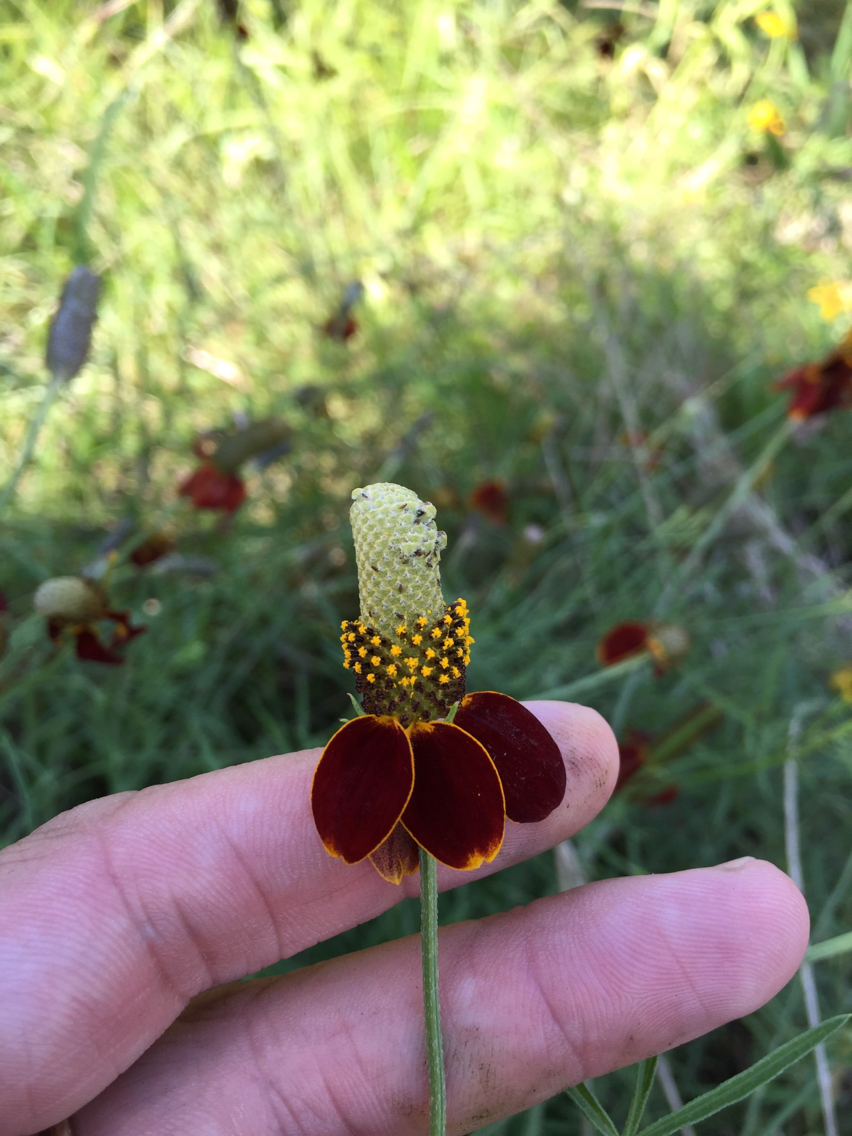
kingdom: Plantae
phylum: Tracheophyta
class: Magnoliopsida
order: Asterales
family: Asteraceae
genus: Ratibida
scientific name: Ratibida columnifera
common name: Prairie coneflower
